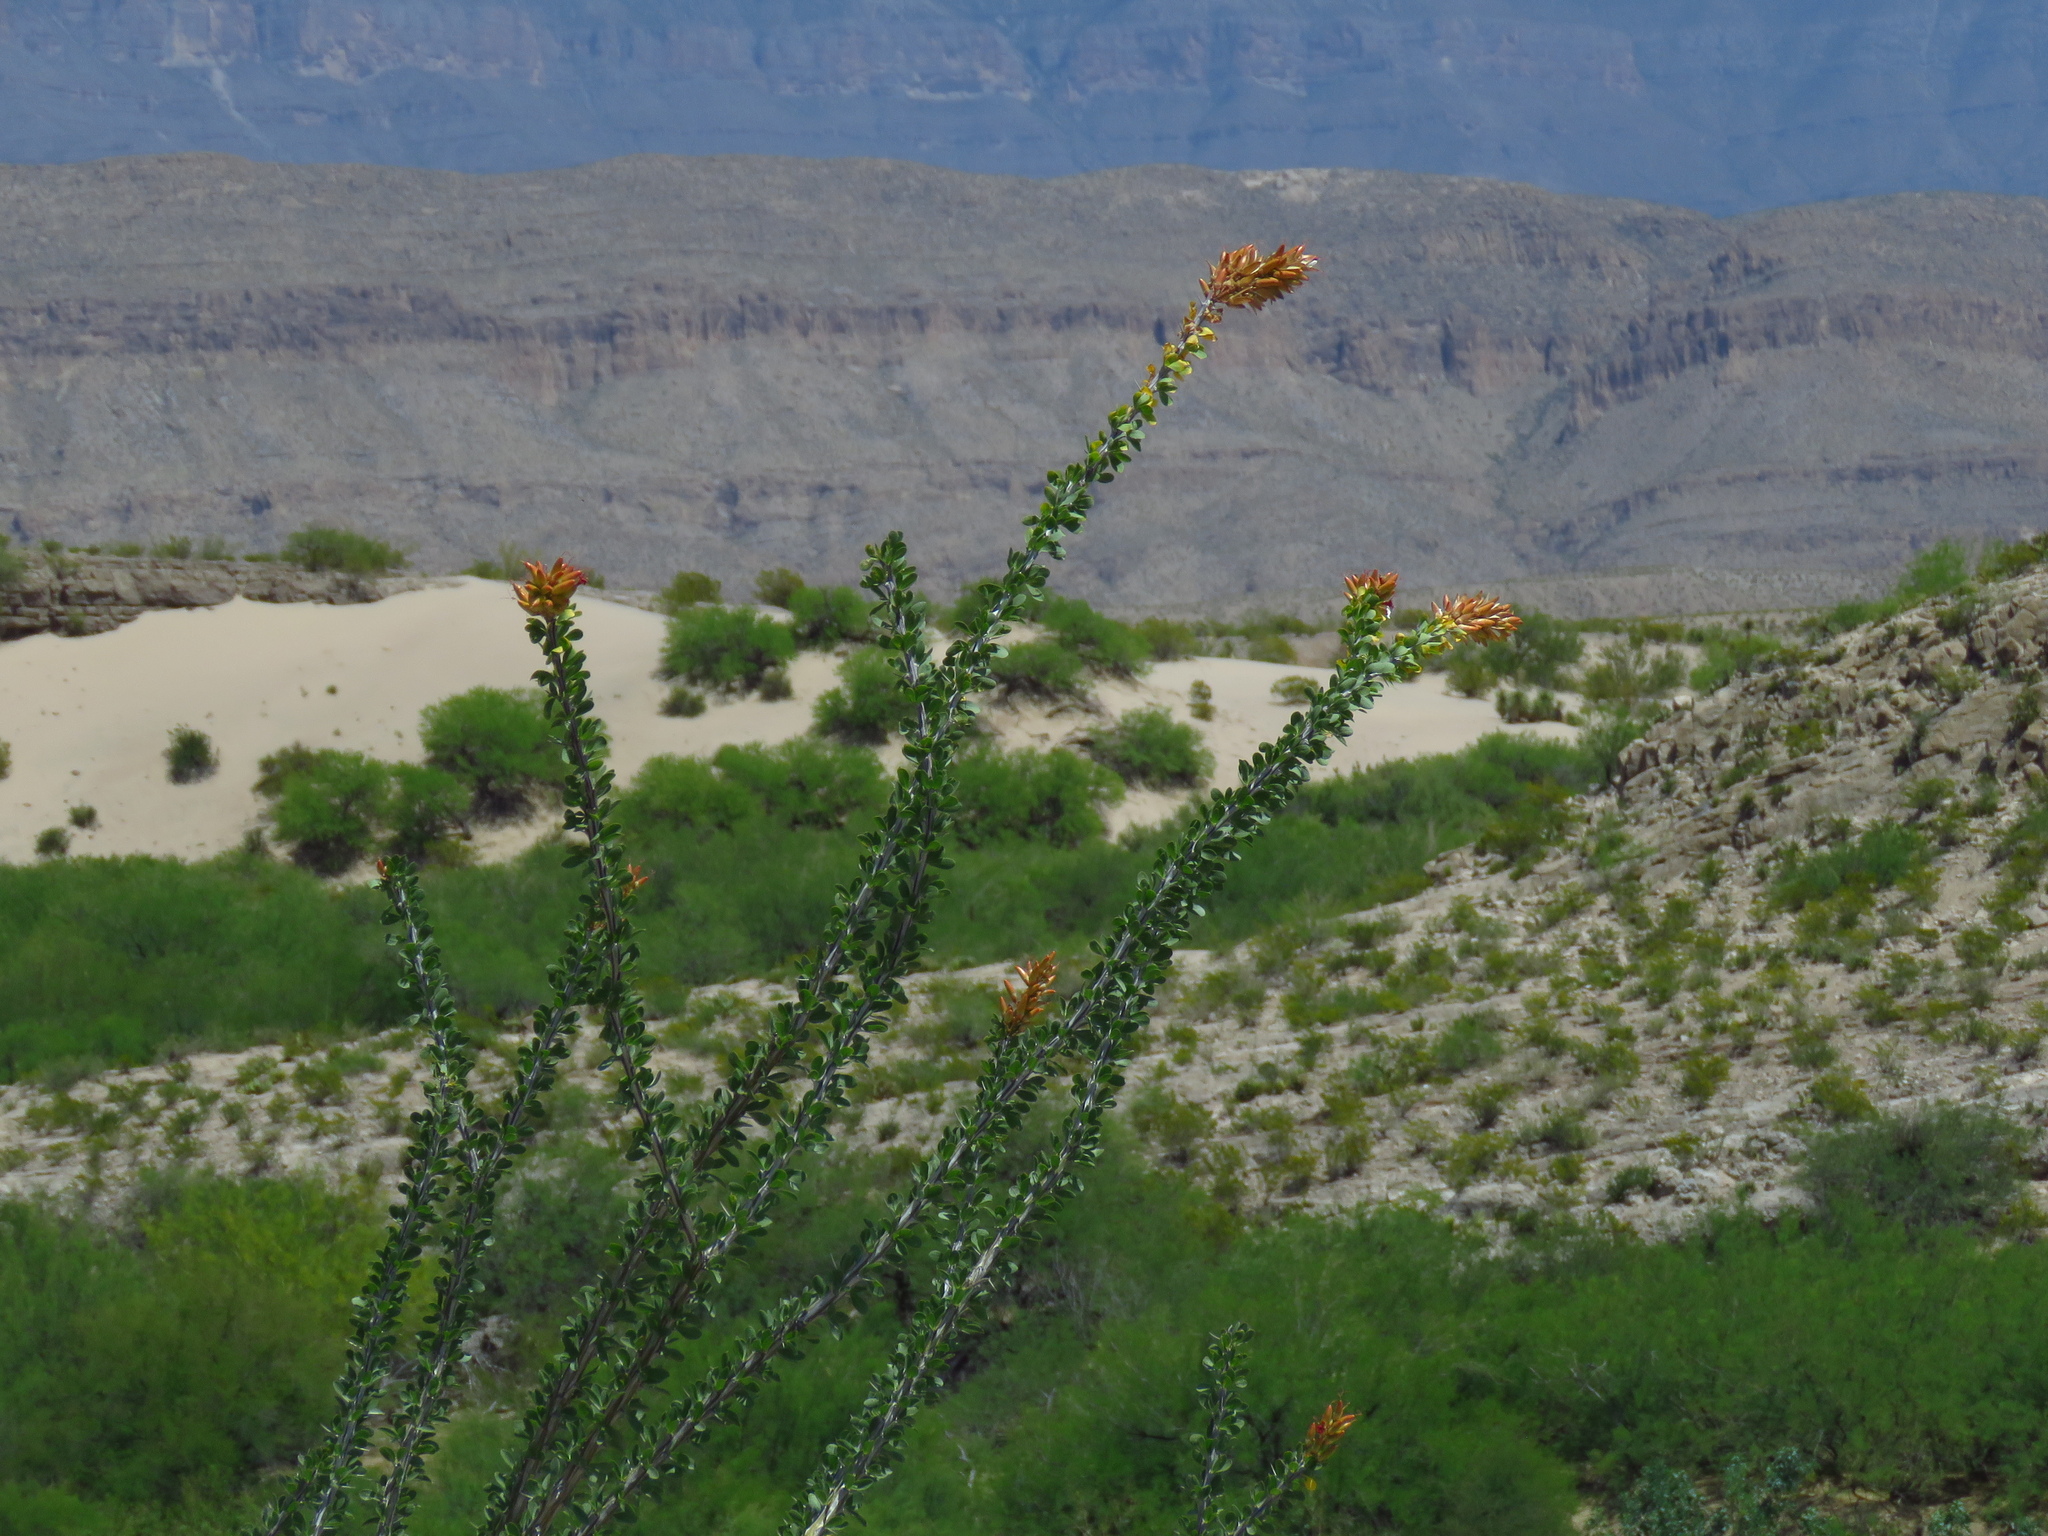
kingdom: Plantae
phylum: Tracheophyta
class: Magnoliopsida
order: Ericales
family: Fouquieriaceae
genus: Fouquieria
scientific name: Fouquieria splendens
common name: Vine-cactus
